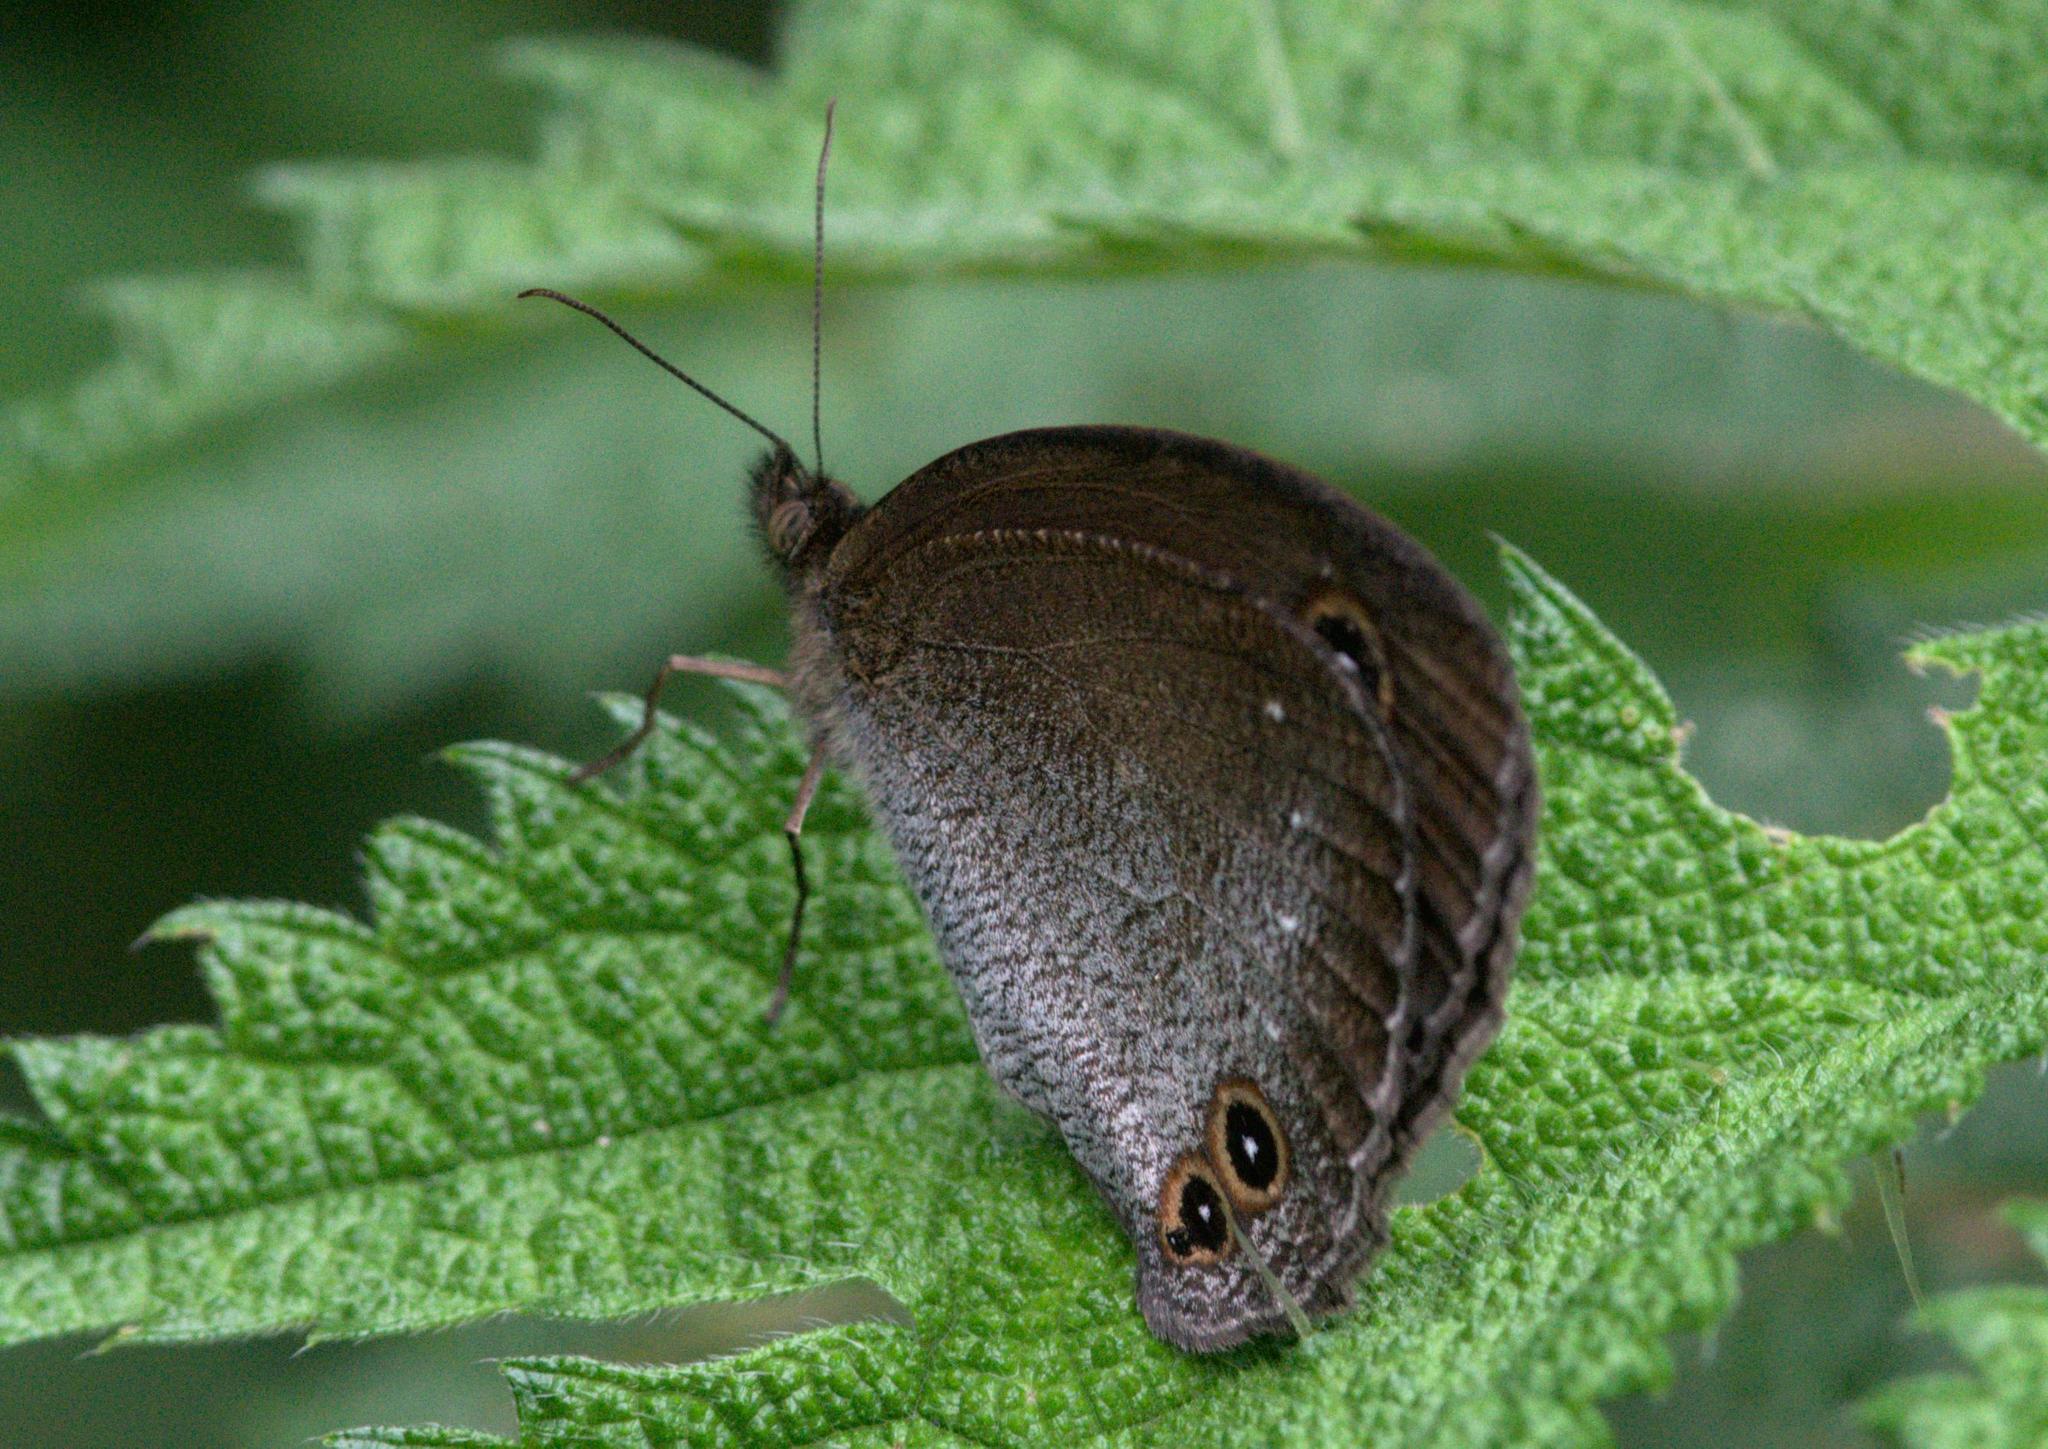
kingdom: Animalia
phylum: Arthropoda
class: Insecta
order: Lepidoptera
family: Nymphalidae
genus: Callerebia
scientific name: Callerebia scanda
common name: Pallid argus
